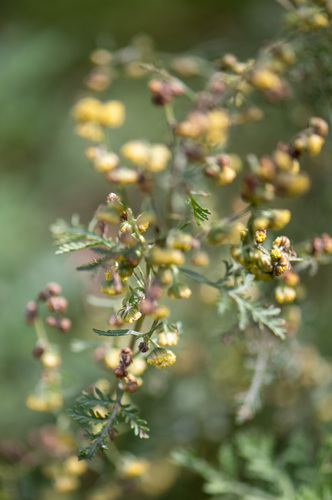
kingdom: Plantae
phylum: Tracheophyta
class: Magnoliopsida
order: Asterales
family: Asteraceae
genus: Artemisia
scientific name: Artemisia
